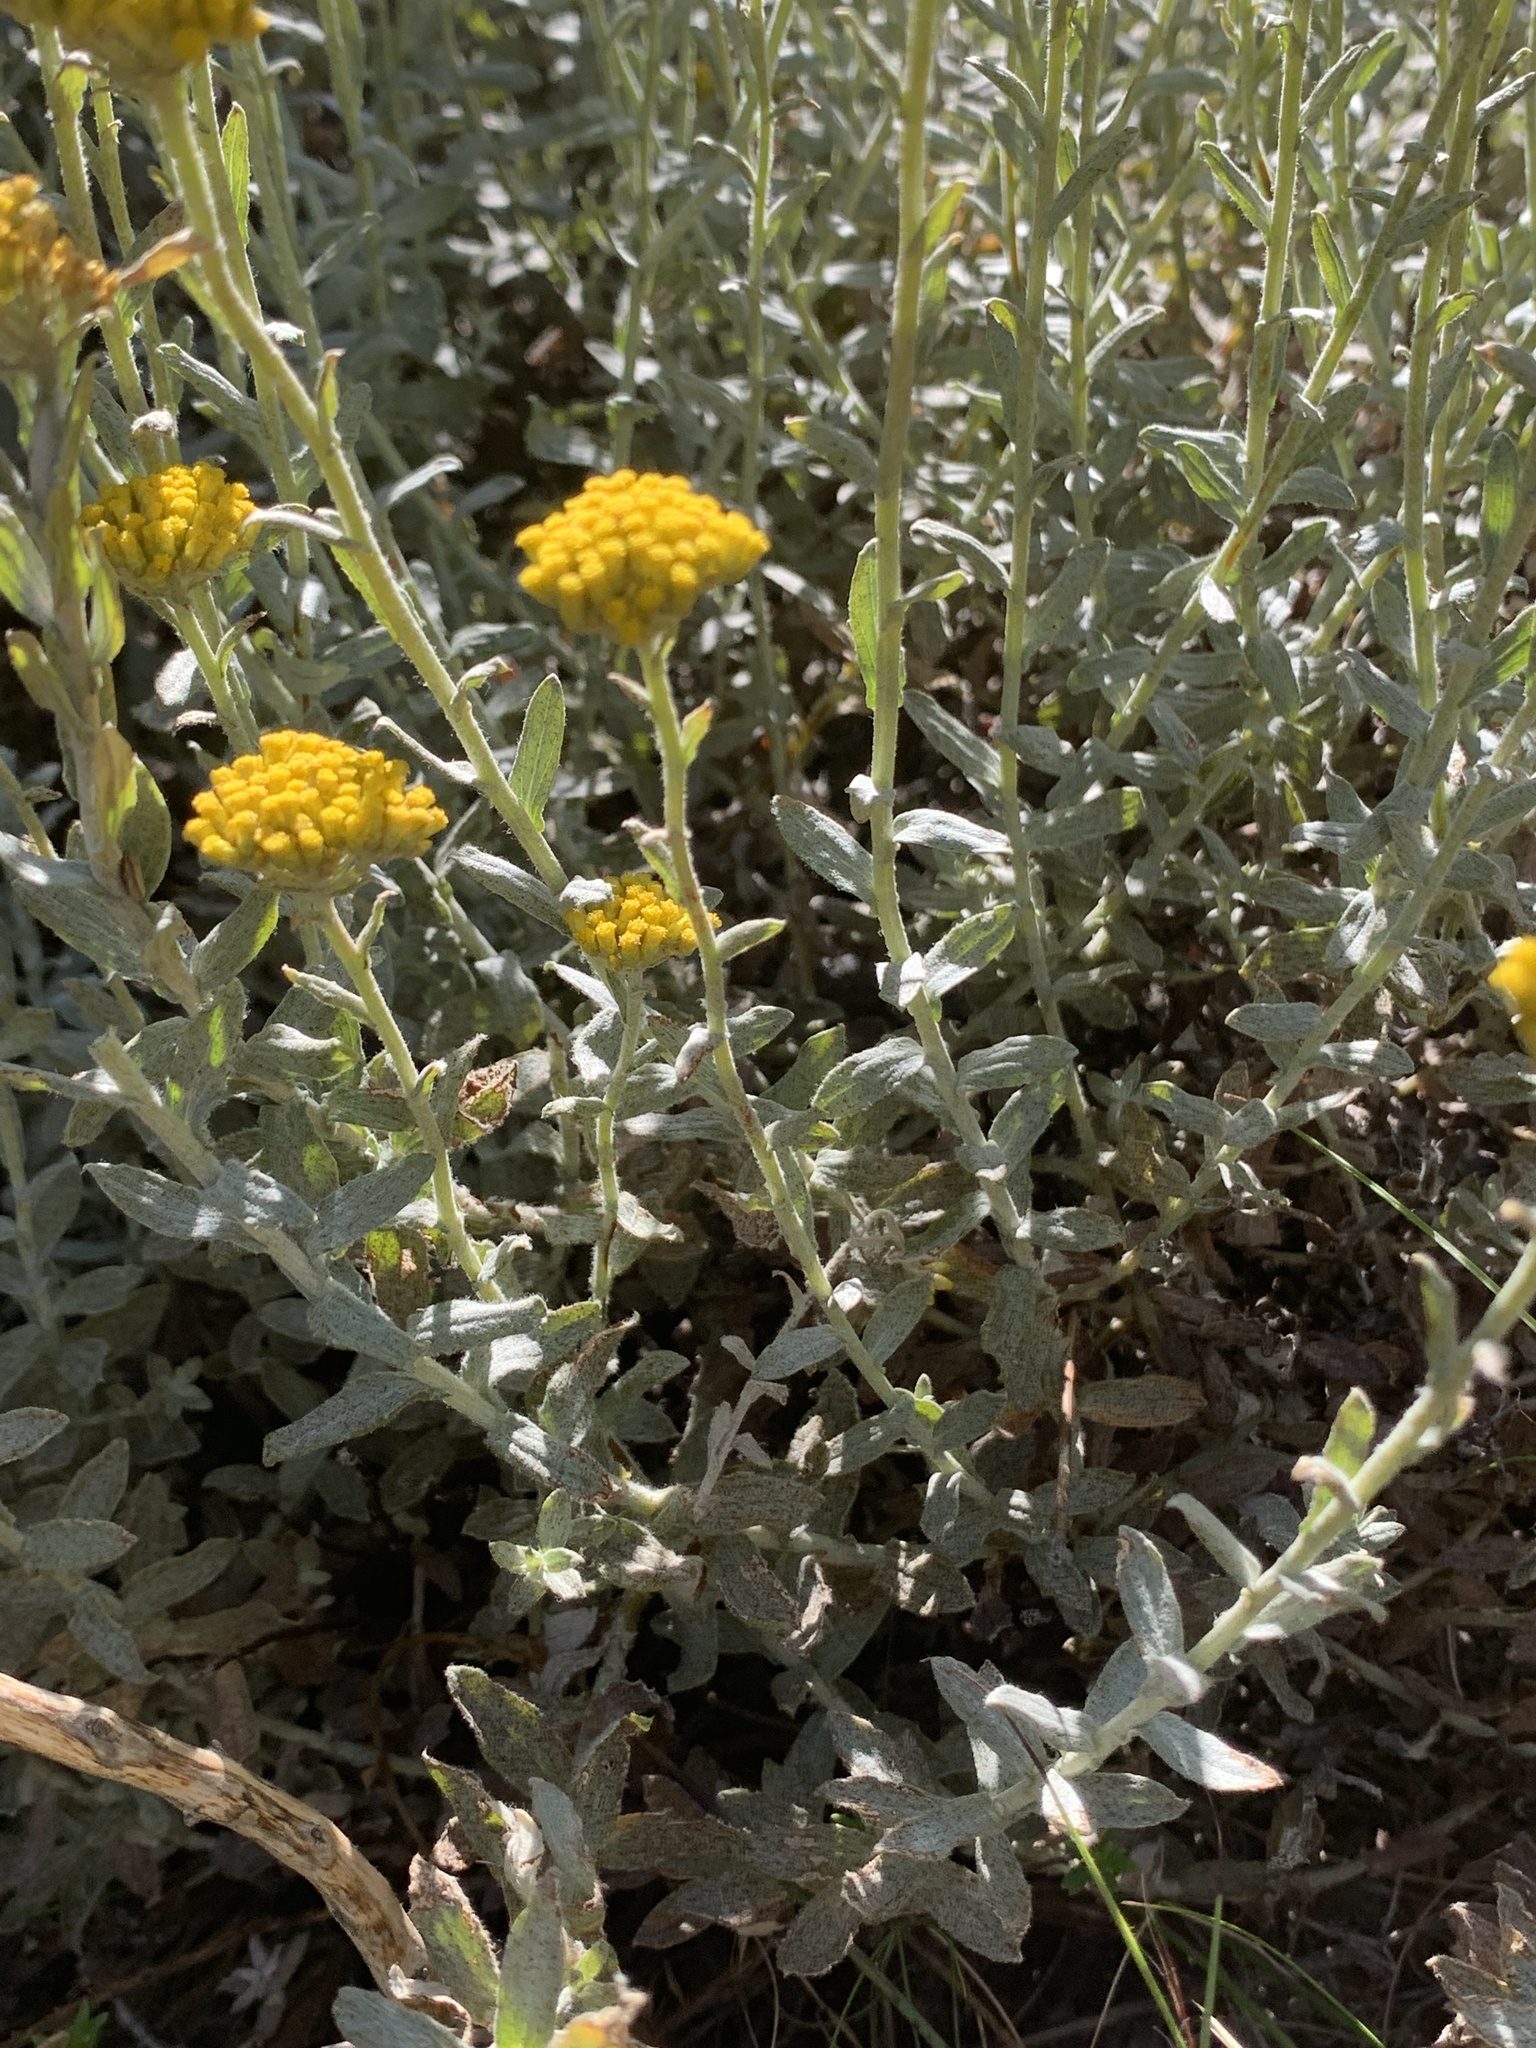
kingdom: Plantae
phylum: Tracheophyta
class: Magnoliopsida
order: Asterales
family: Asteraceae
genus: Helichrysum
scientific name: Helichrysum cymosum
